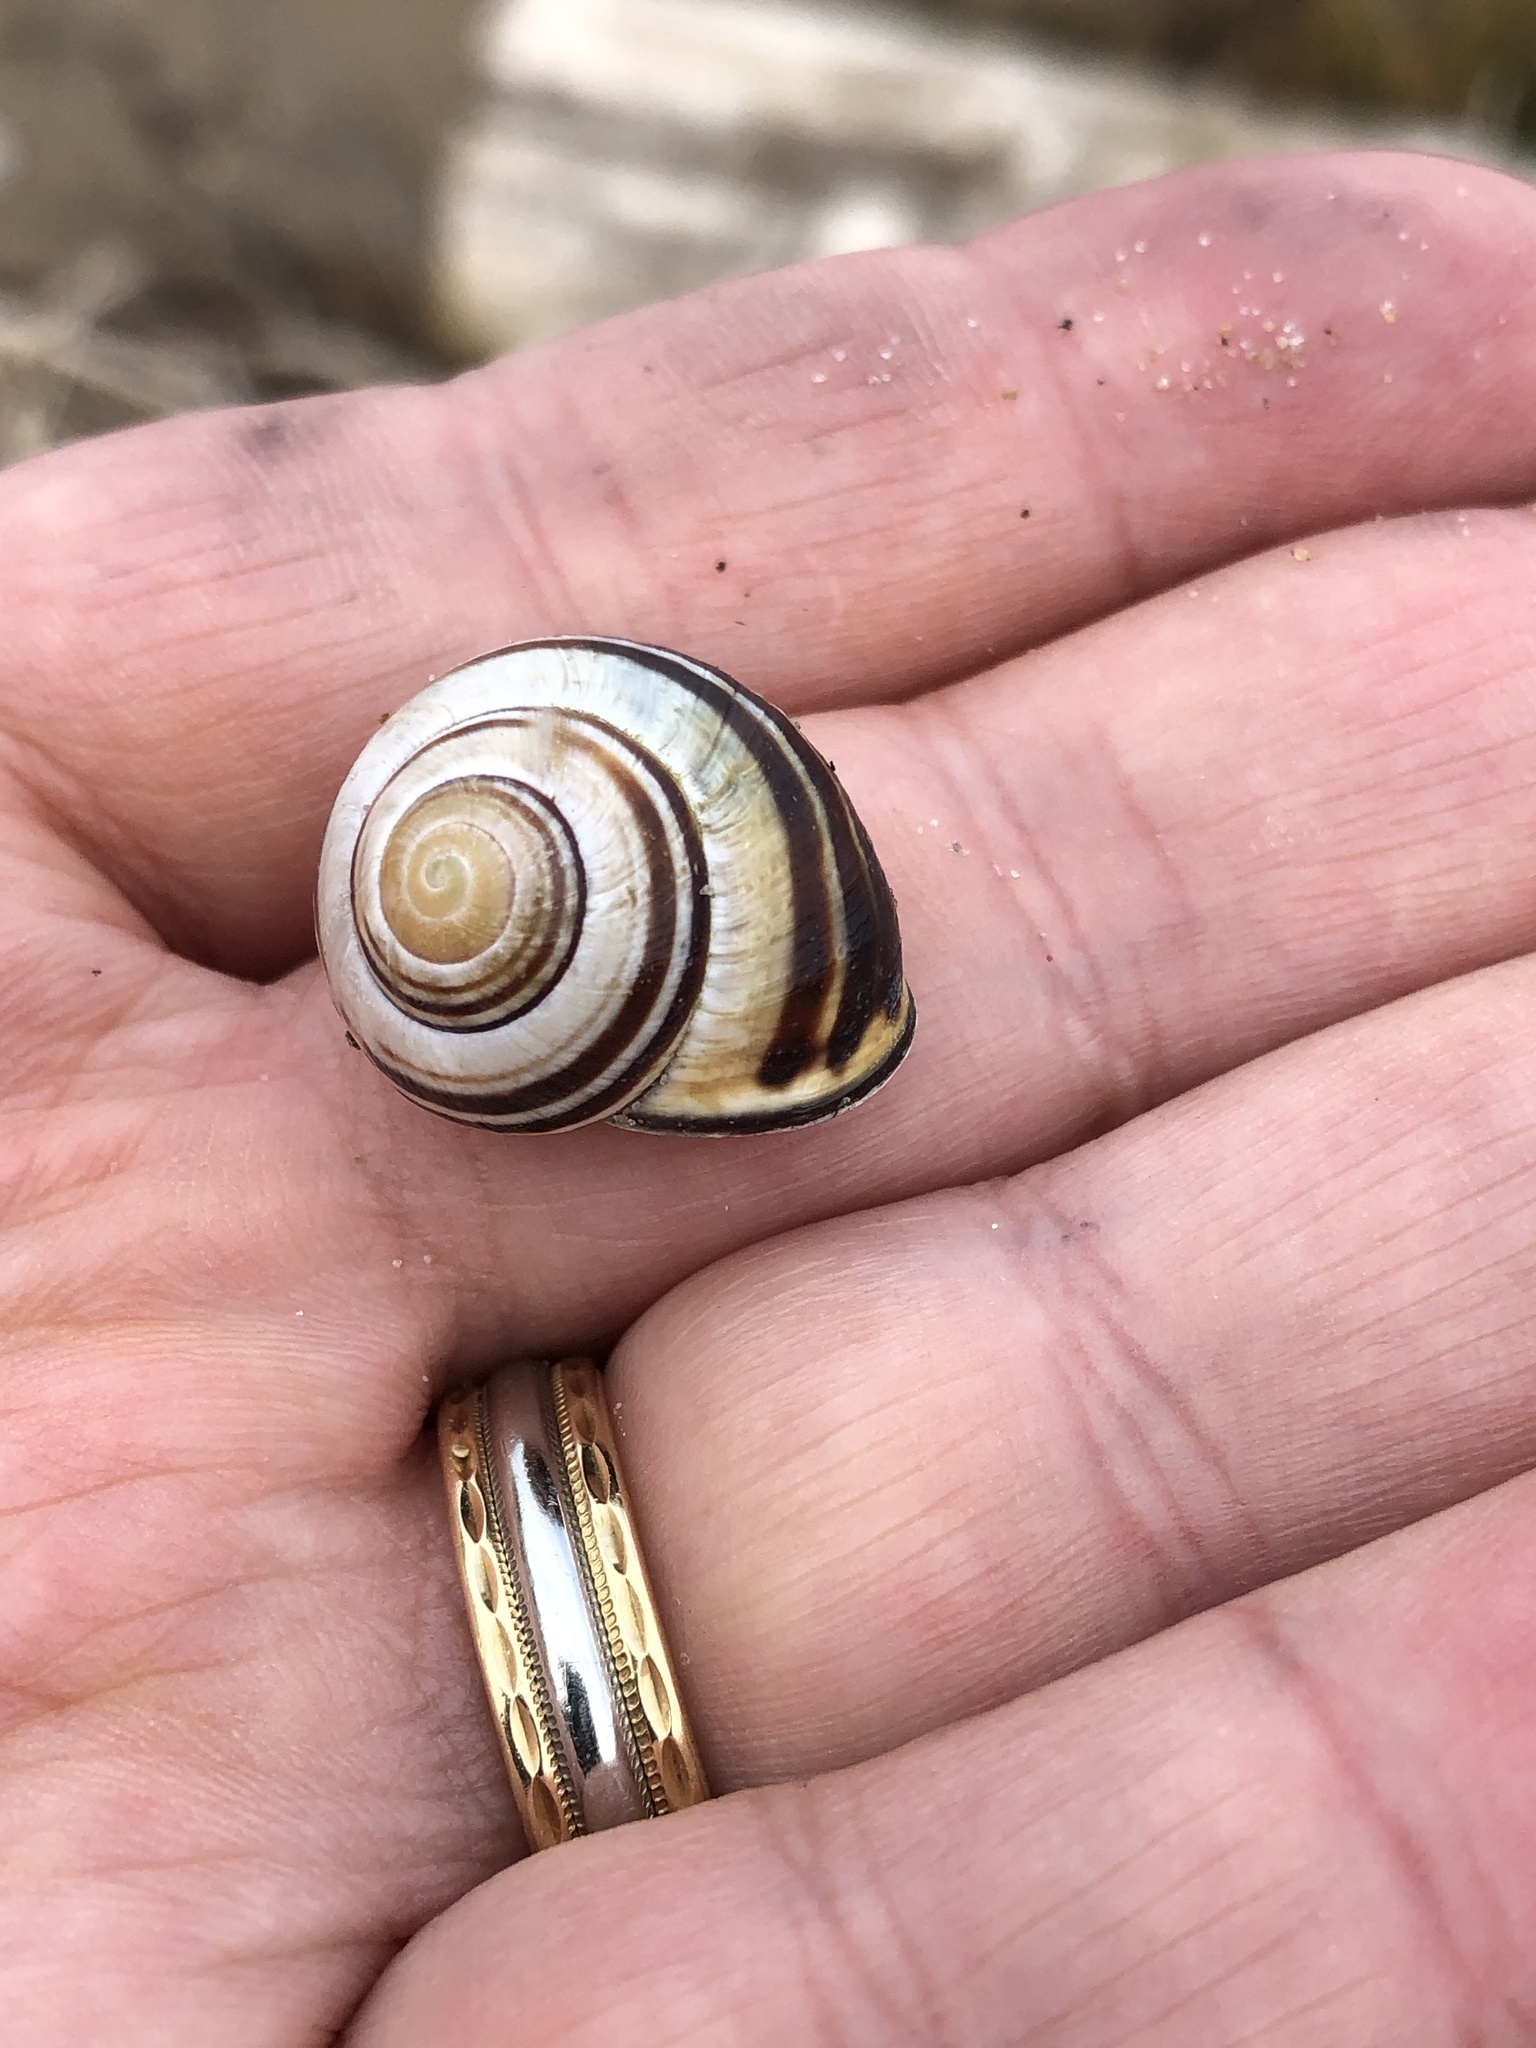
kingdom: Animalia
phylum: Mollusca
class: Gastropoda
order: Stylommatophora
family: Helicidae
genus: Cepaea
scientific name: Cepaea nemoralis
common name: Grovesnail
